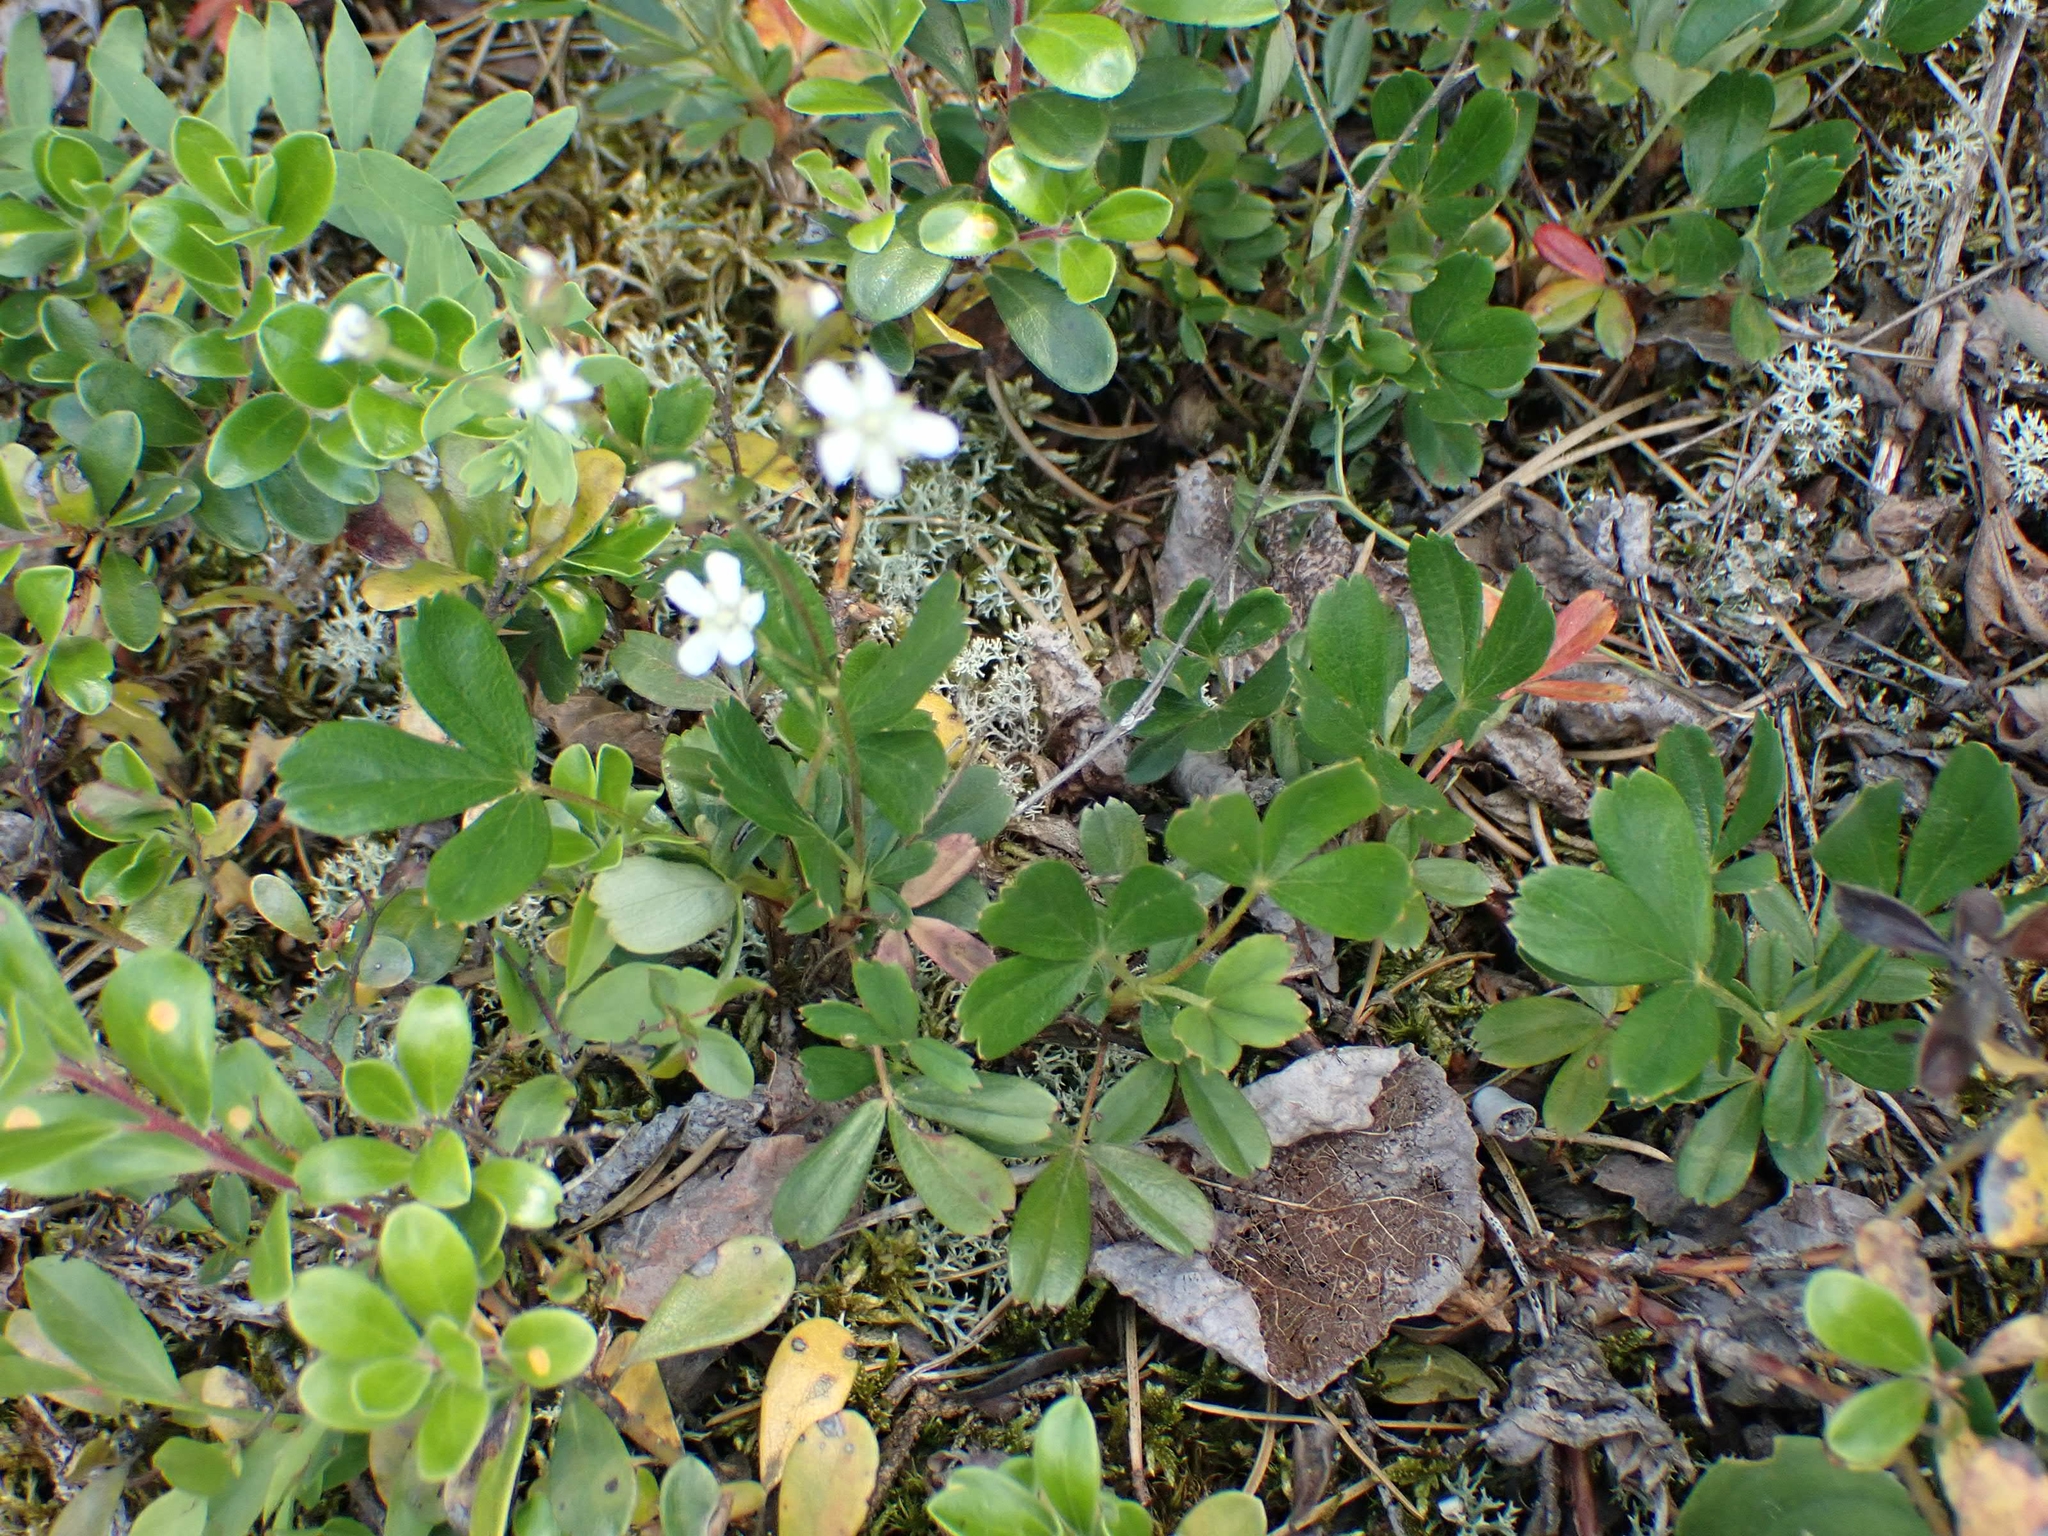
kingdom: Plantae
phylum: Tracheophyta
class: Magnoliopsida
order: Rosales
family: Rosaceae
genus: Sibbaldia
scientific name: Sibbaldia tridentata
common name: Three-toothed cinquefoil
